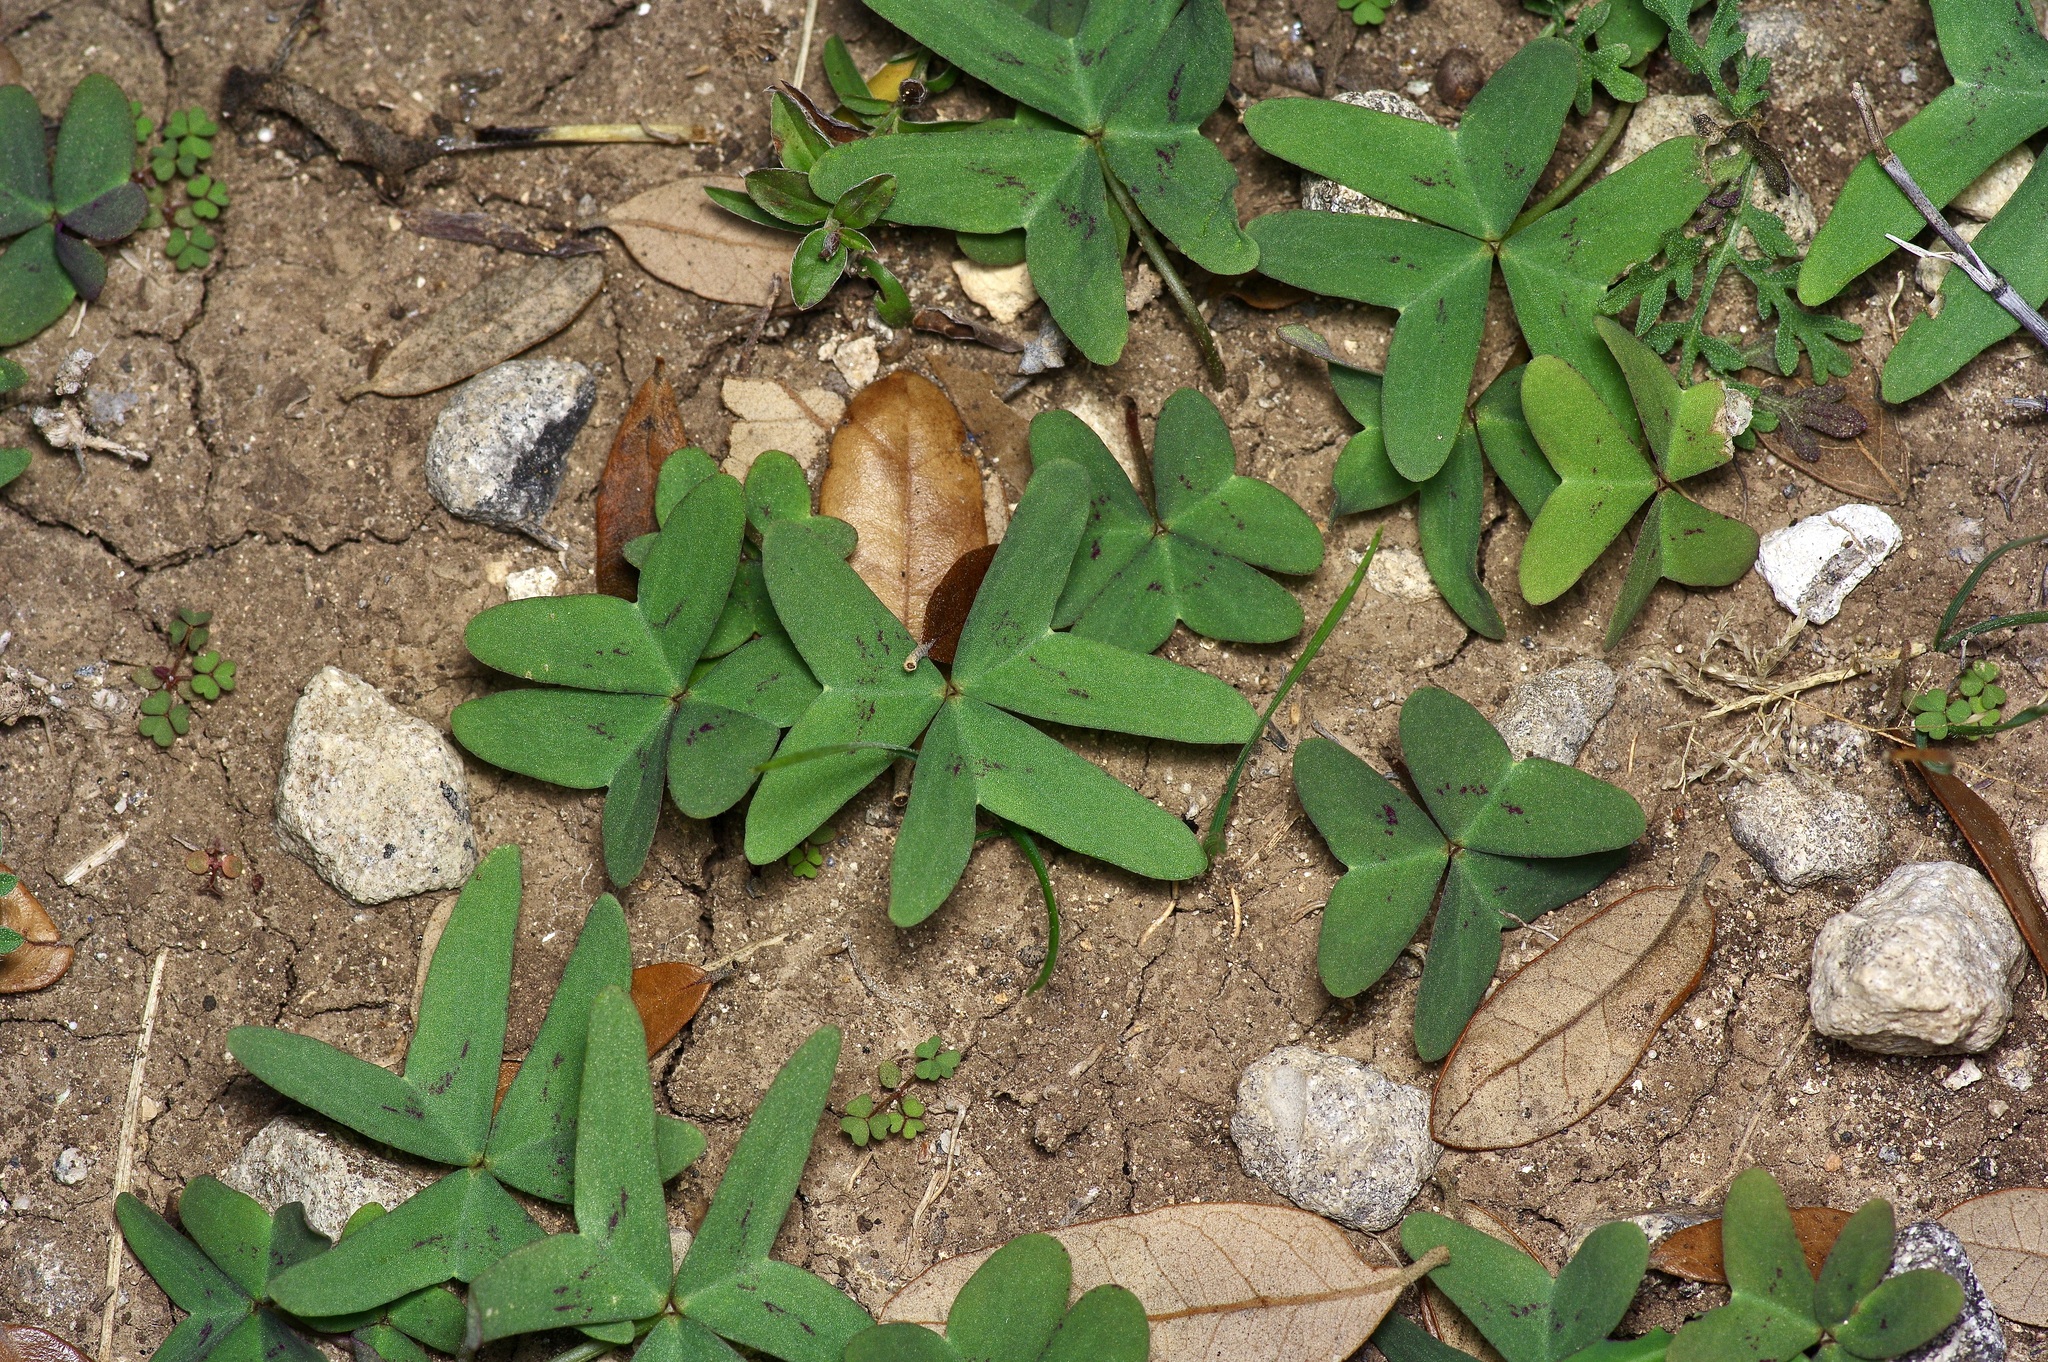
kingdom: Plantae
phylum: Tracheophyta
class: Magnoliopsida
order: Oxalidales
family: Oxalidaceae
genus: Oxalis
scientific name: Oxalis drummondii
